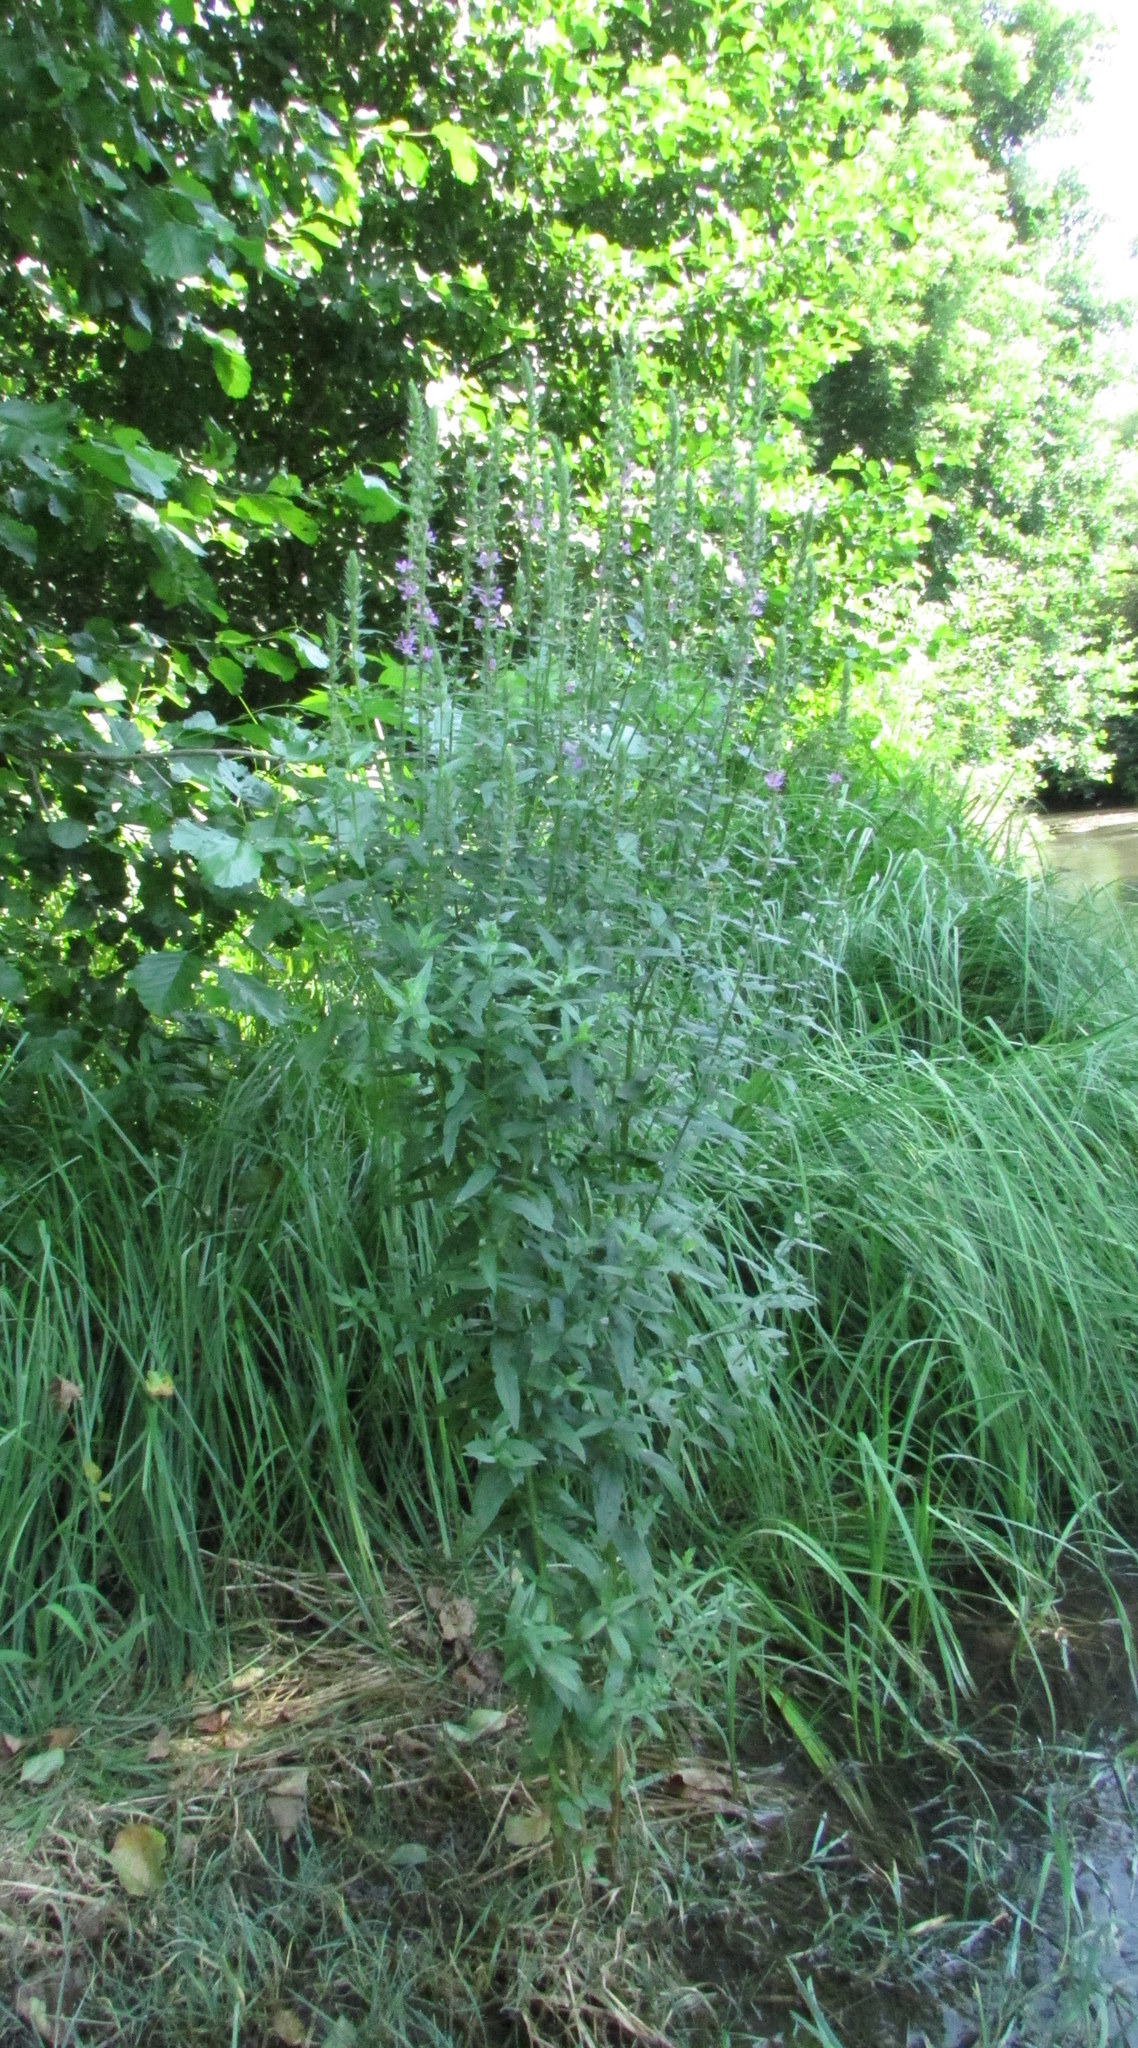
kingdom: Plantae
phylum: Tracheophyta
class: Magnoliopsida
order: Myrtales
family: Lythraceae
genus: Lythrum
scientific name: Lythrum salicaria
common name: Purple loosestrife
